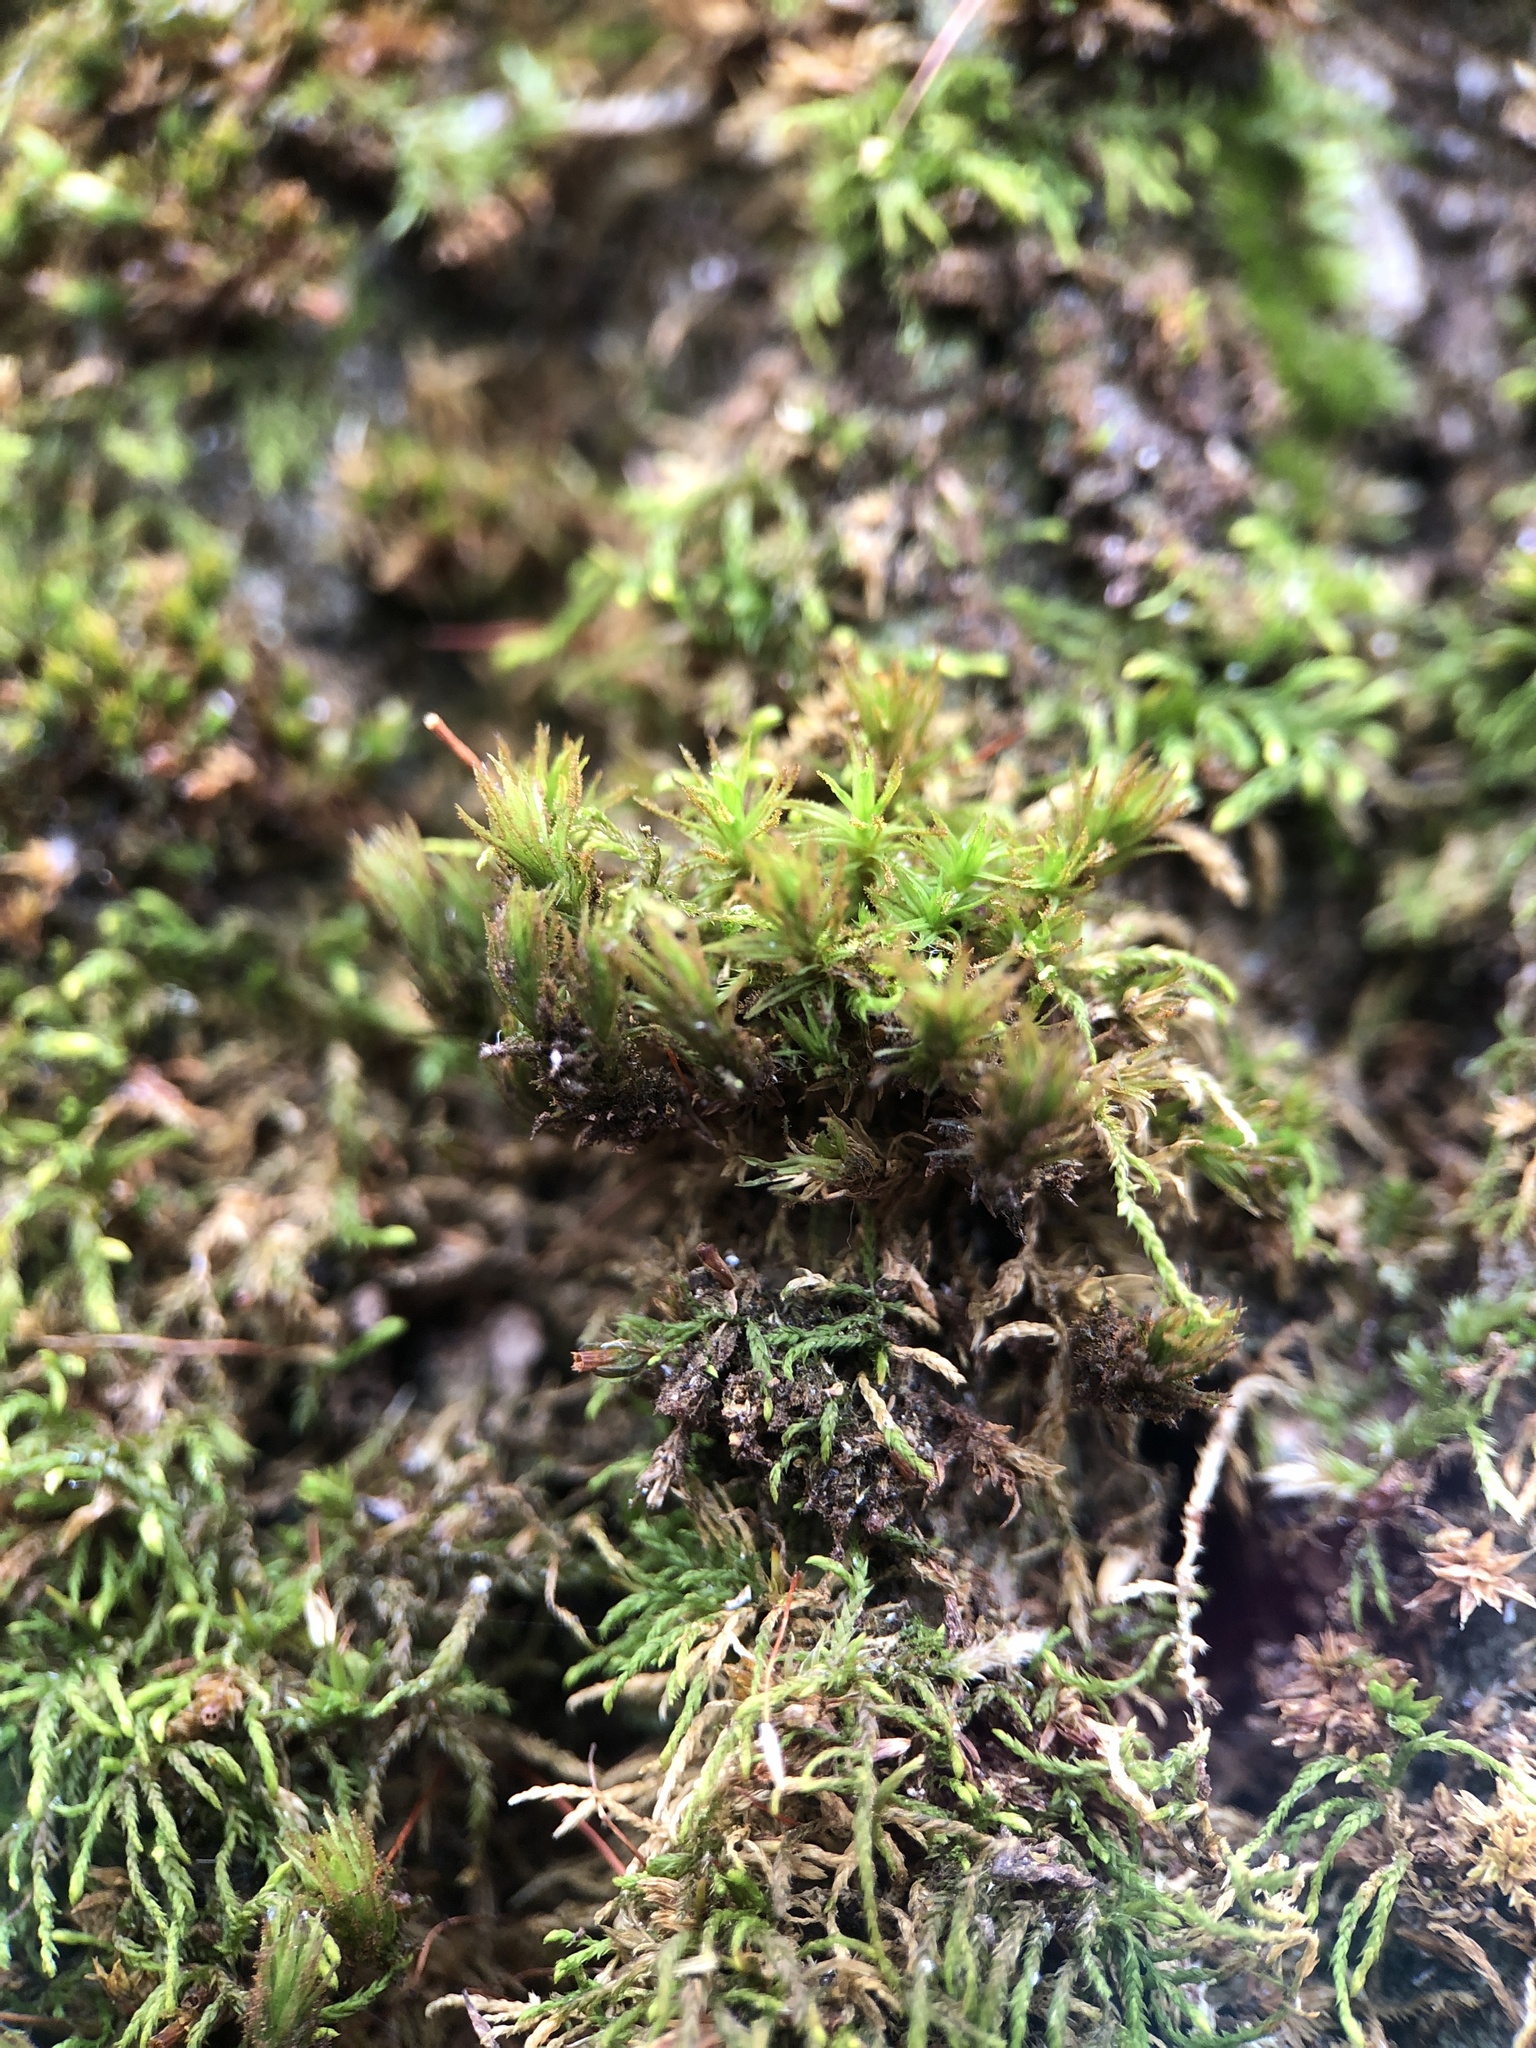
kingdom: Plantae
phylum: Bryophyta
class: Bryopsida
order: Orthotrichales
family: Orthotrichaceae
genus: Pulvigera
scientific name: Pulvigera lyellii
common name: Lyell's bristle-moss
